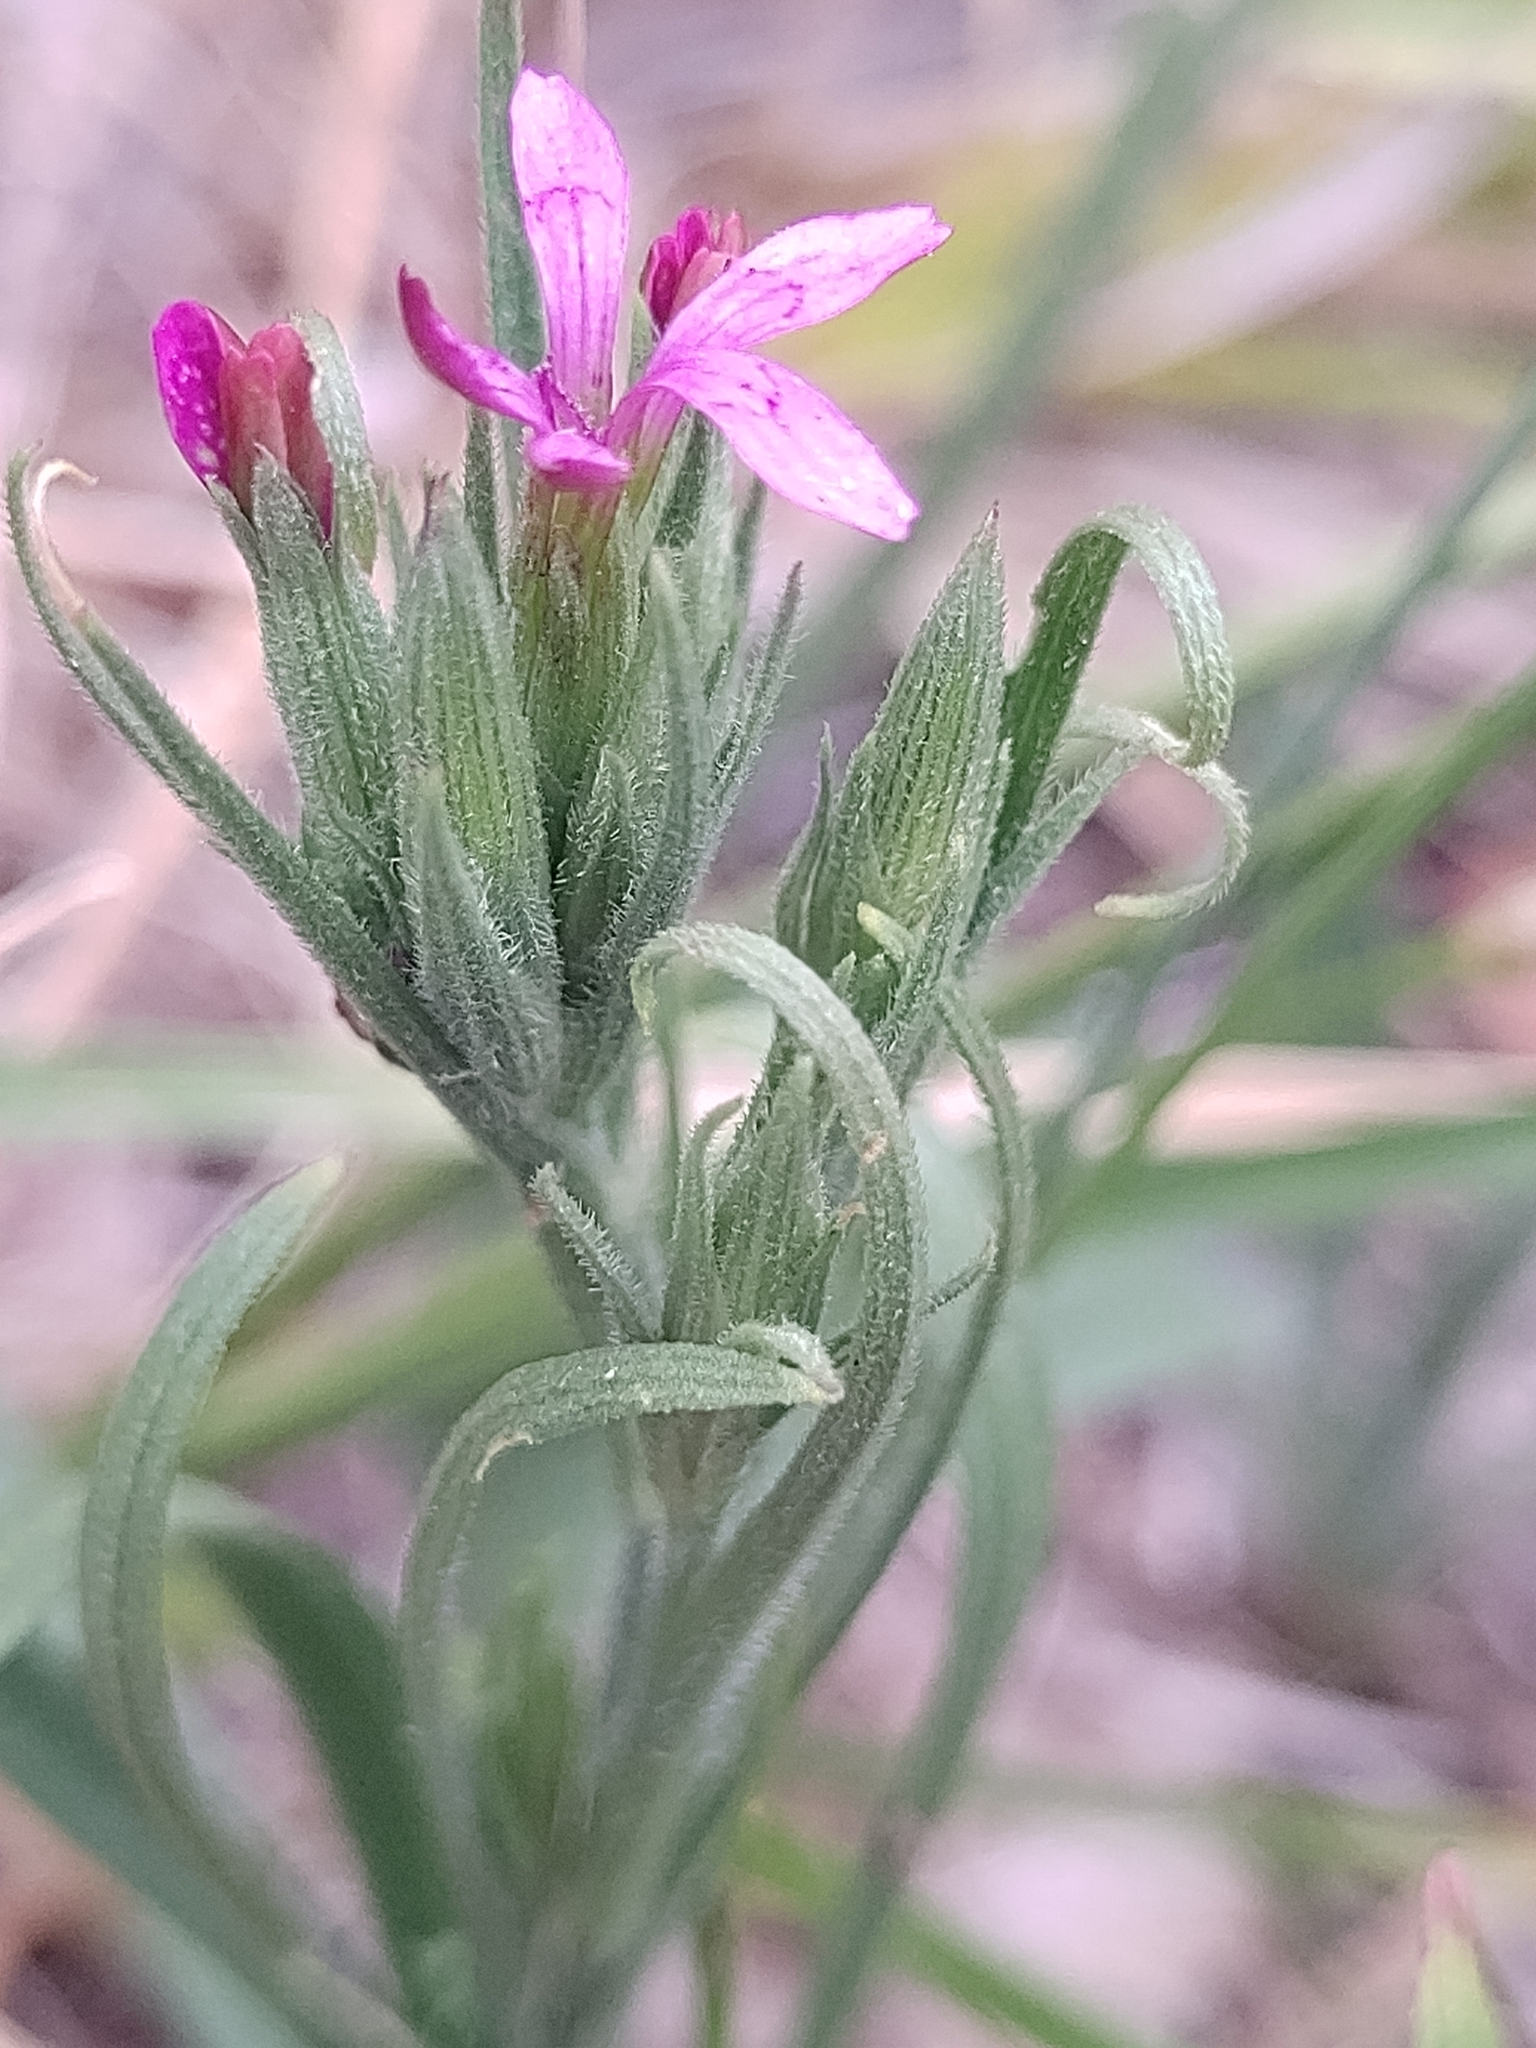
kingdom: Plantae
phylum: Tracheophyta
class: Magnoliopsida
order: Caryophyllales
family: Caryophyllaceae
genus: Dianthus
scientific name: Dianthus armeria
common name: Deptford pink
